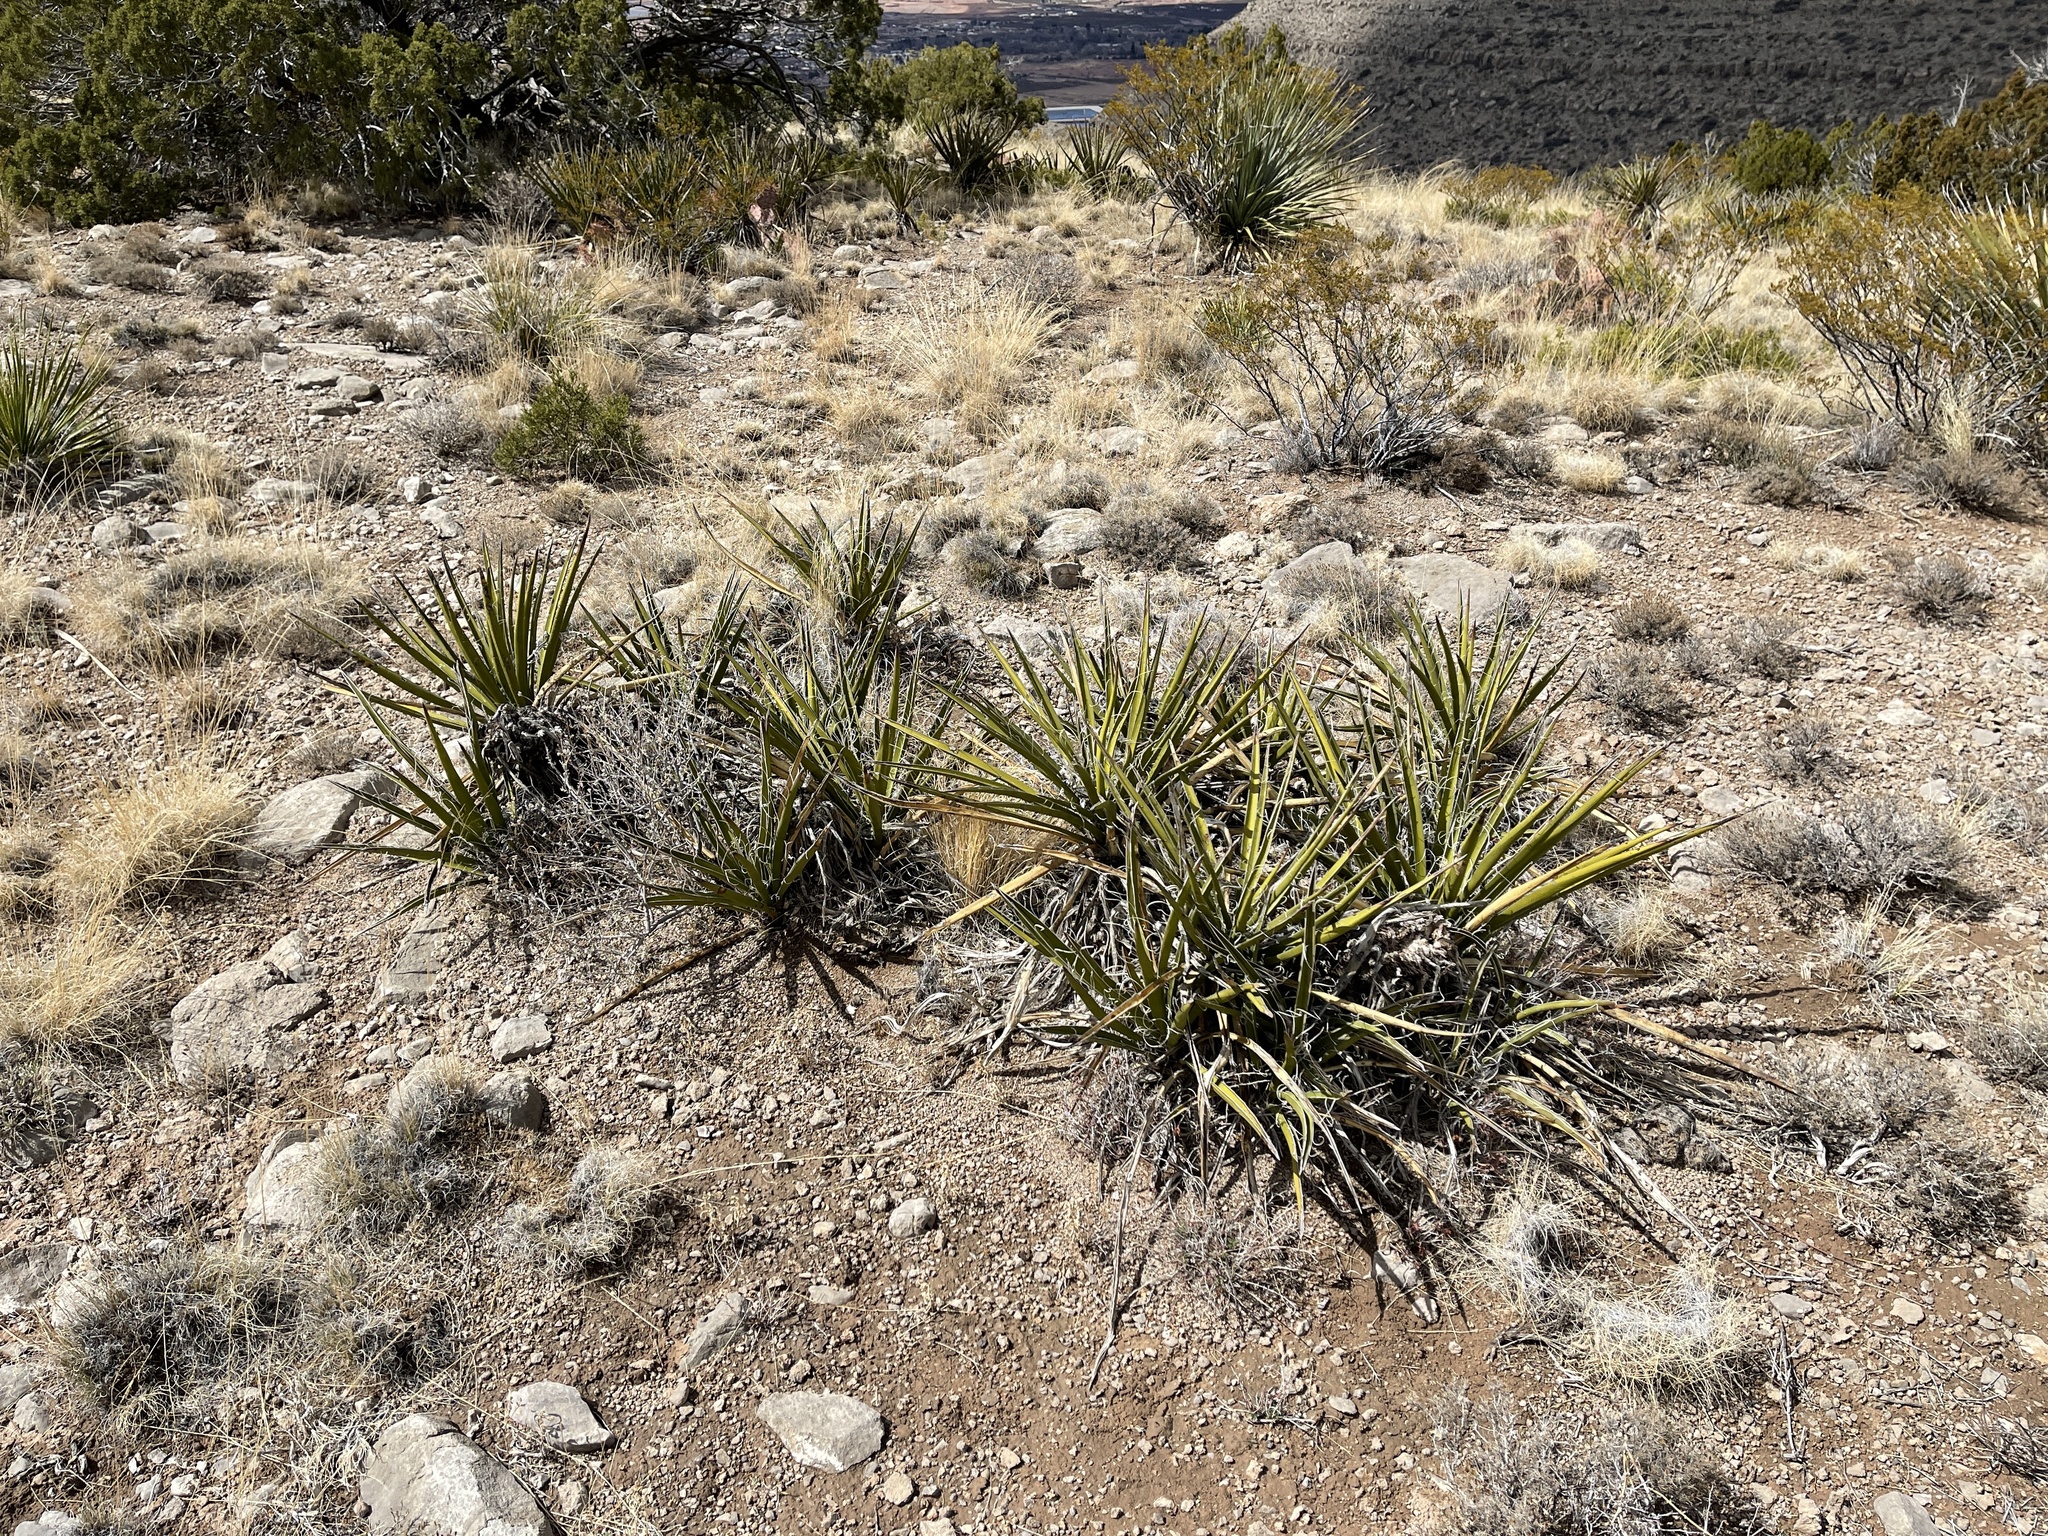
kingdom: Plantae
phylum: Tracheophyta
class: Liliopsida
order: Asparagales
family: Asparagaceae
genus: Yucca
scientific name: Yucca baccata
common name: Banana yucca
